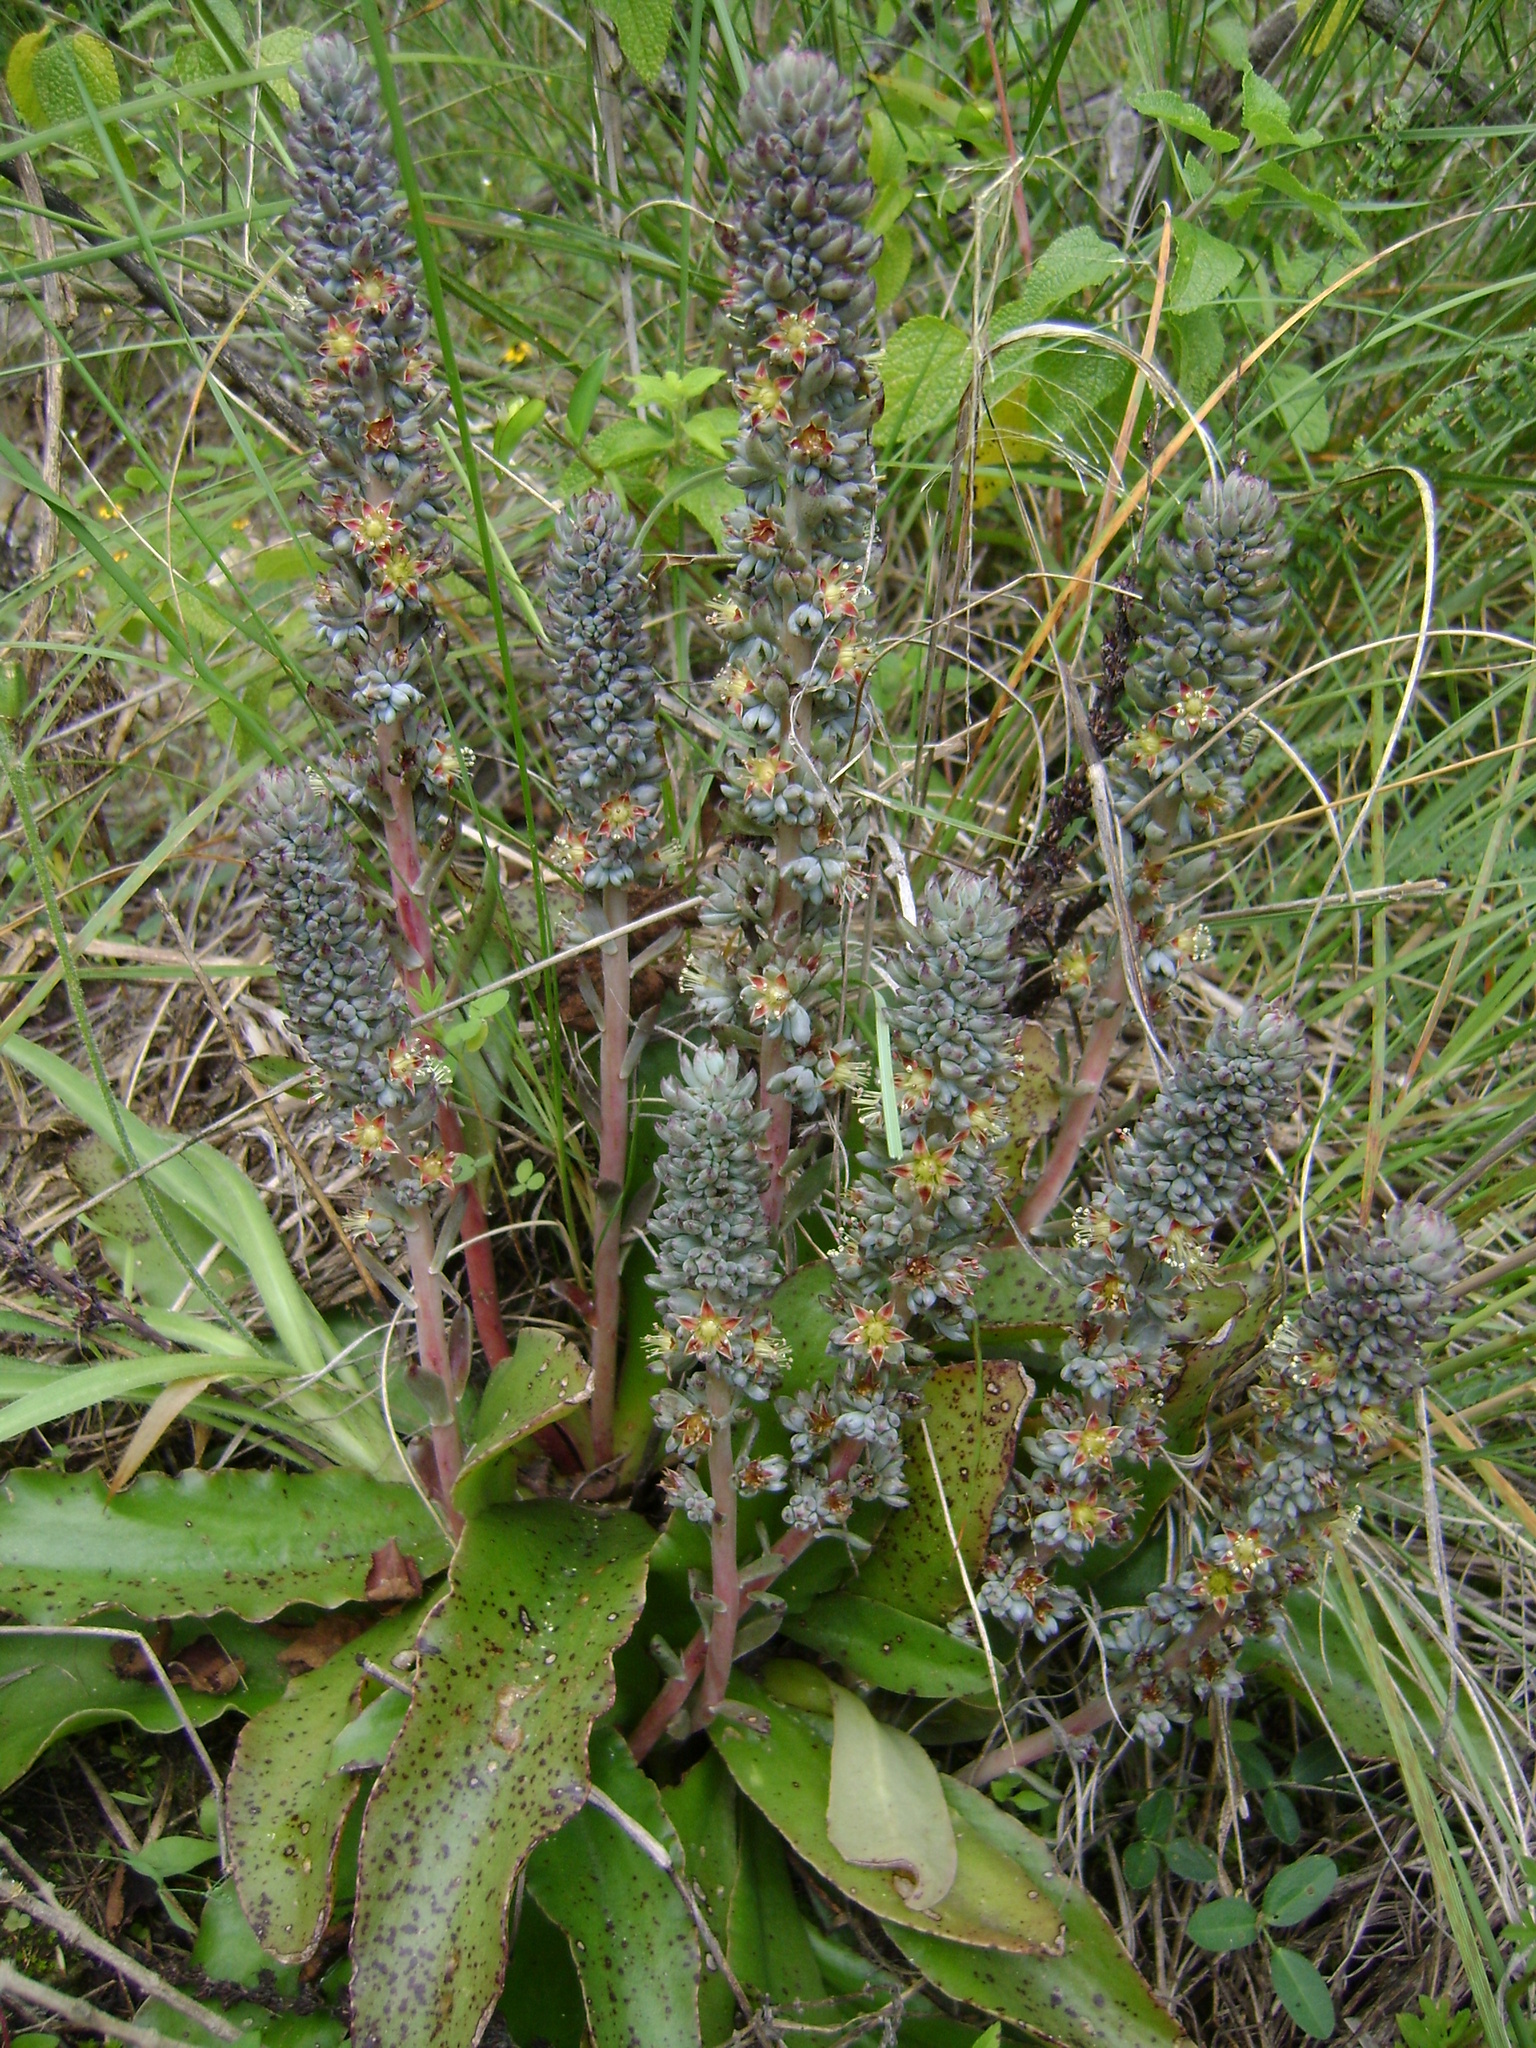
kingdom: Plantae
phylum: Tracheophyta
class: Magnoliopsida
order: Saxifragales
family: Crassulaceae
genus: Thompsonella
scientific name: Thompsonella minutiflora
